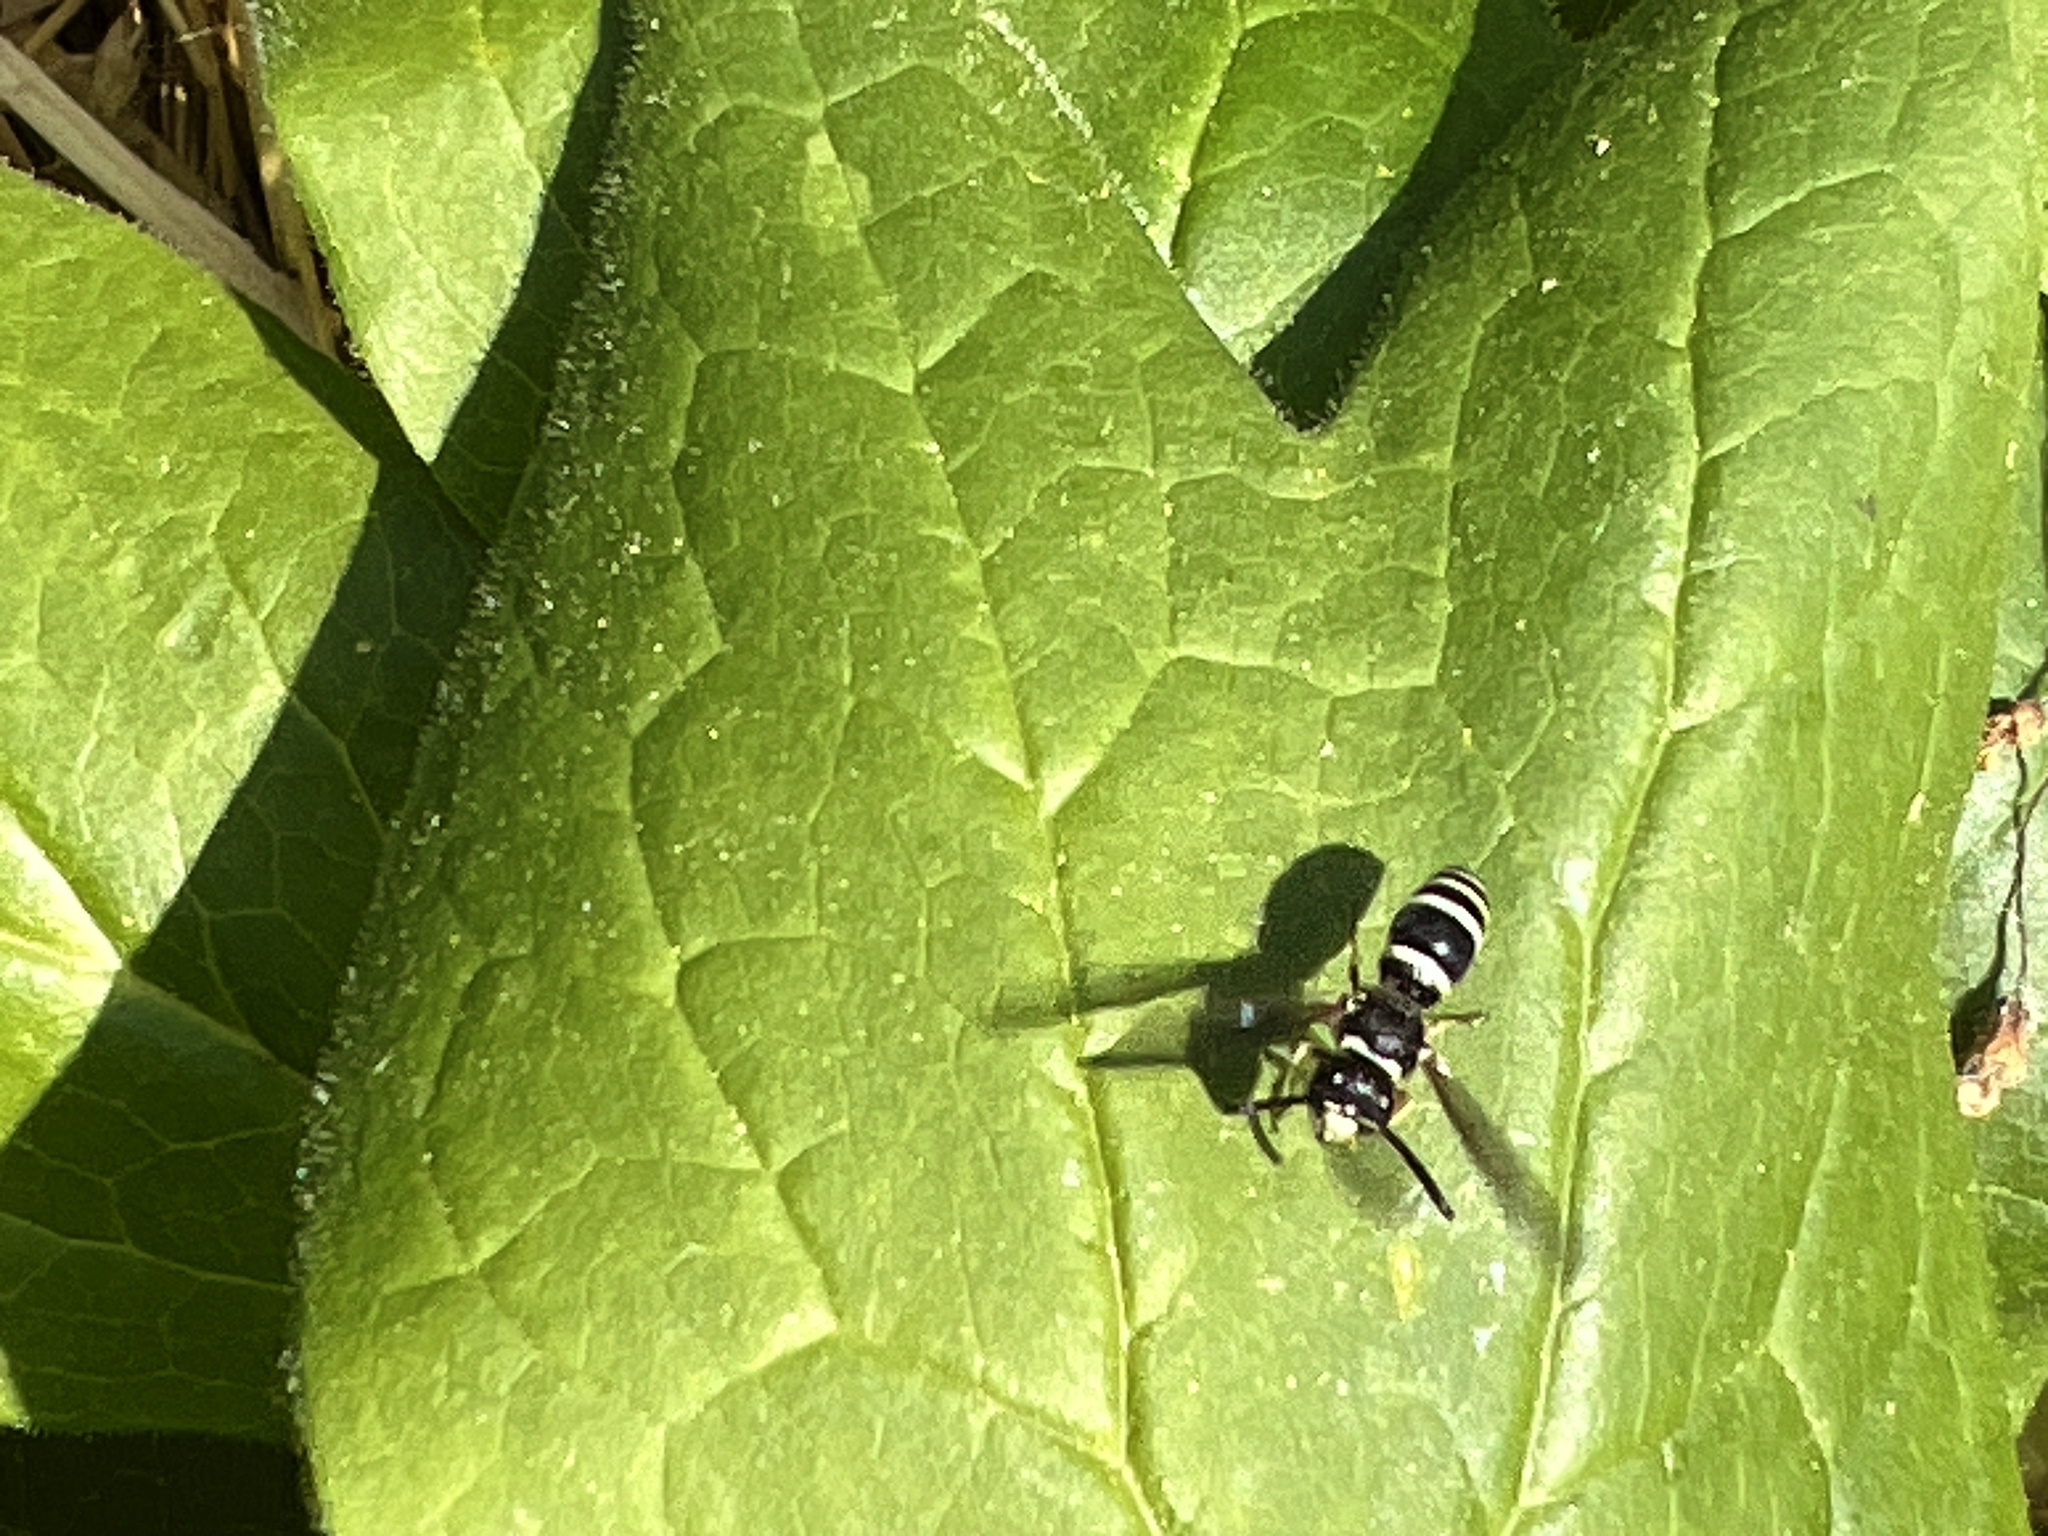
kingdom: Animalia
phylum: Arthropoda
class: Insecta
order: Hymenoptera
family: Vespidae
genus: Ancistrocerus
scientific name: Ancistrocerus
